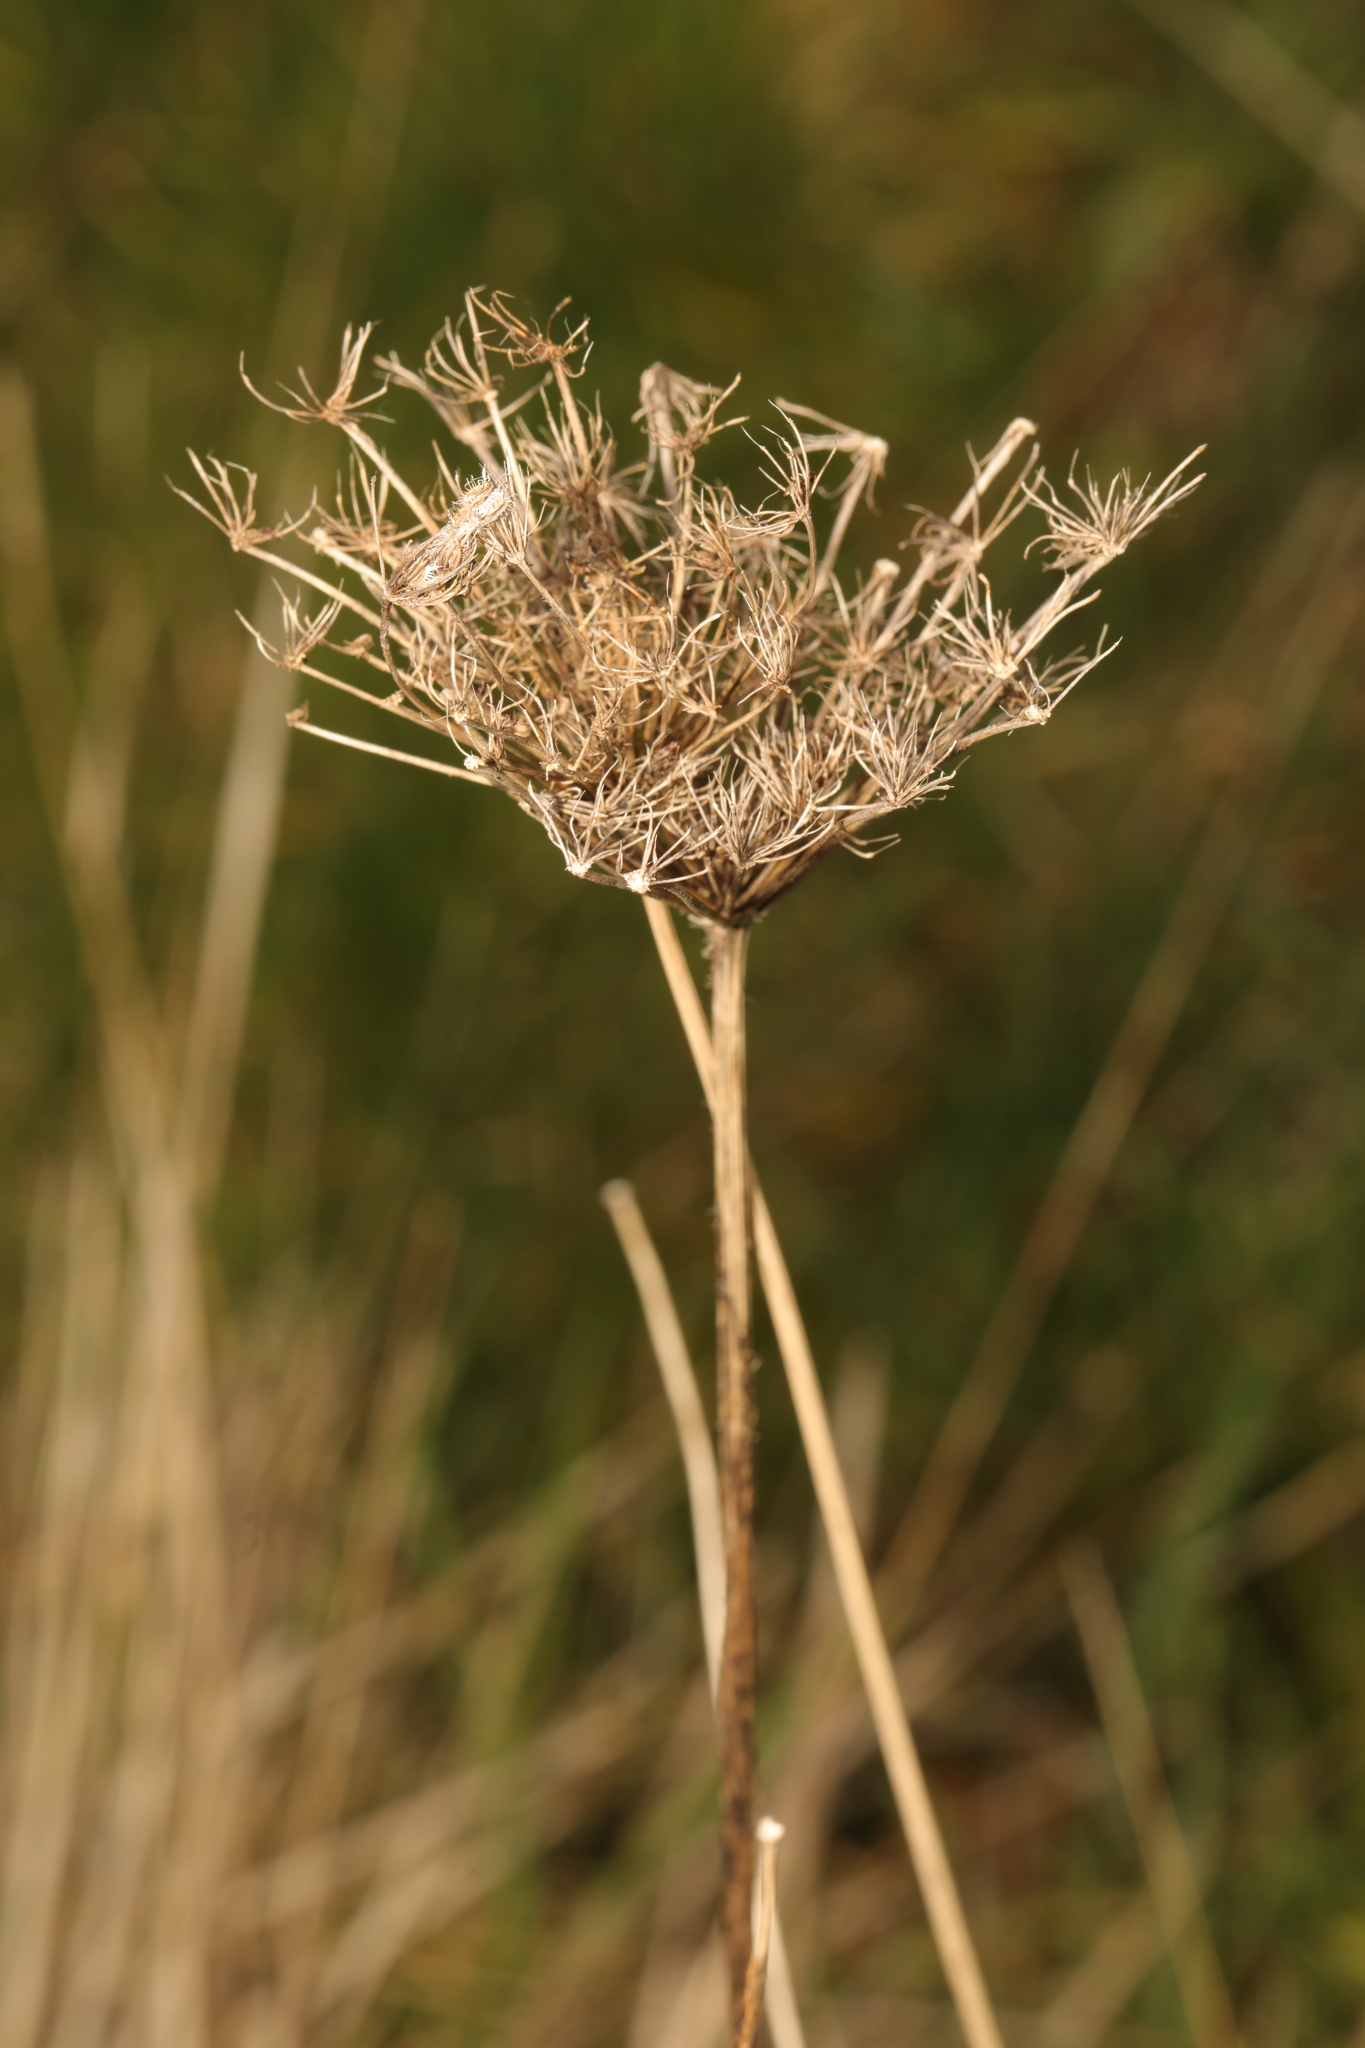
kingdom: Plantae
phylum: Tracheophyta
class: Magnoliopsida
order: Apiales
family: Apiaceae
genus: Daucus
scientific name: Daucus carota
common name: Wild carrot
